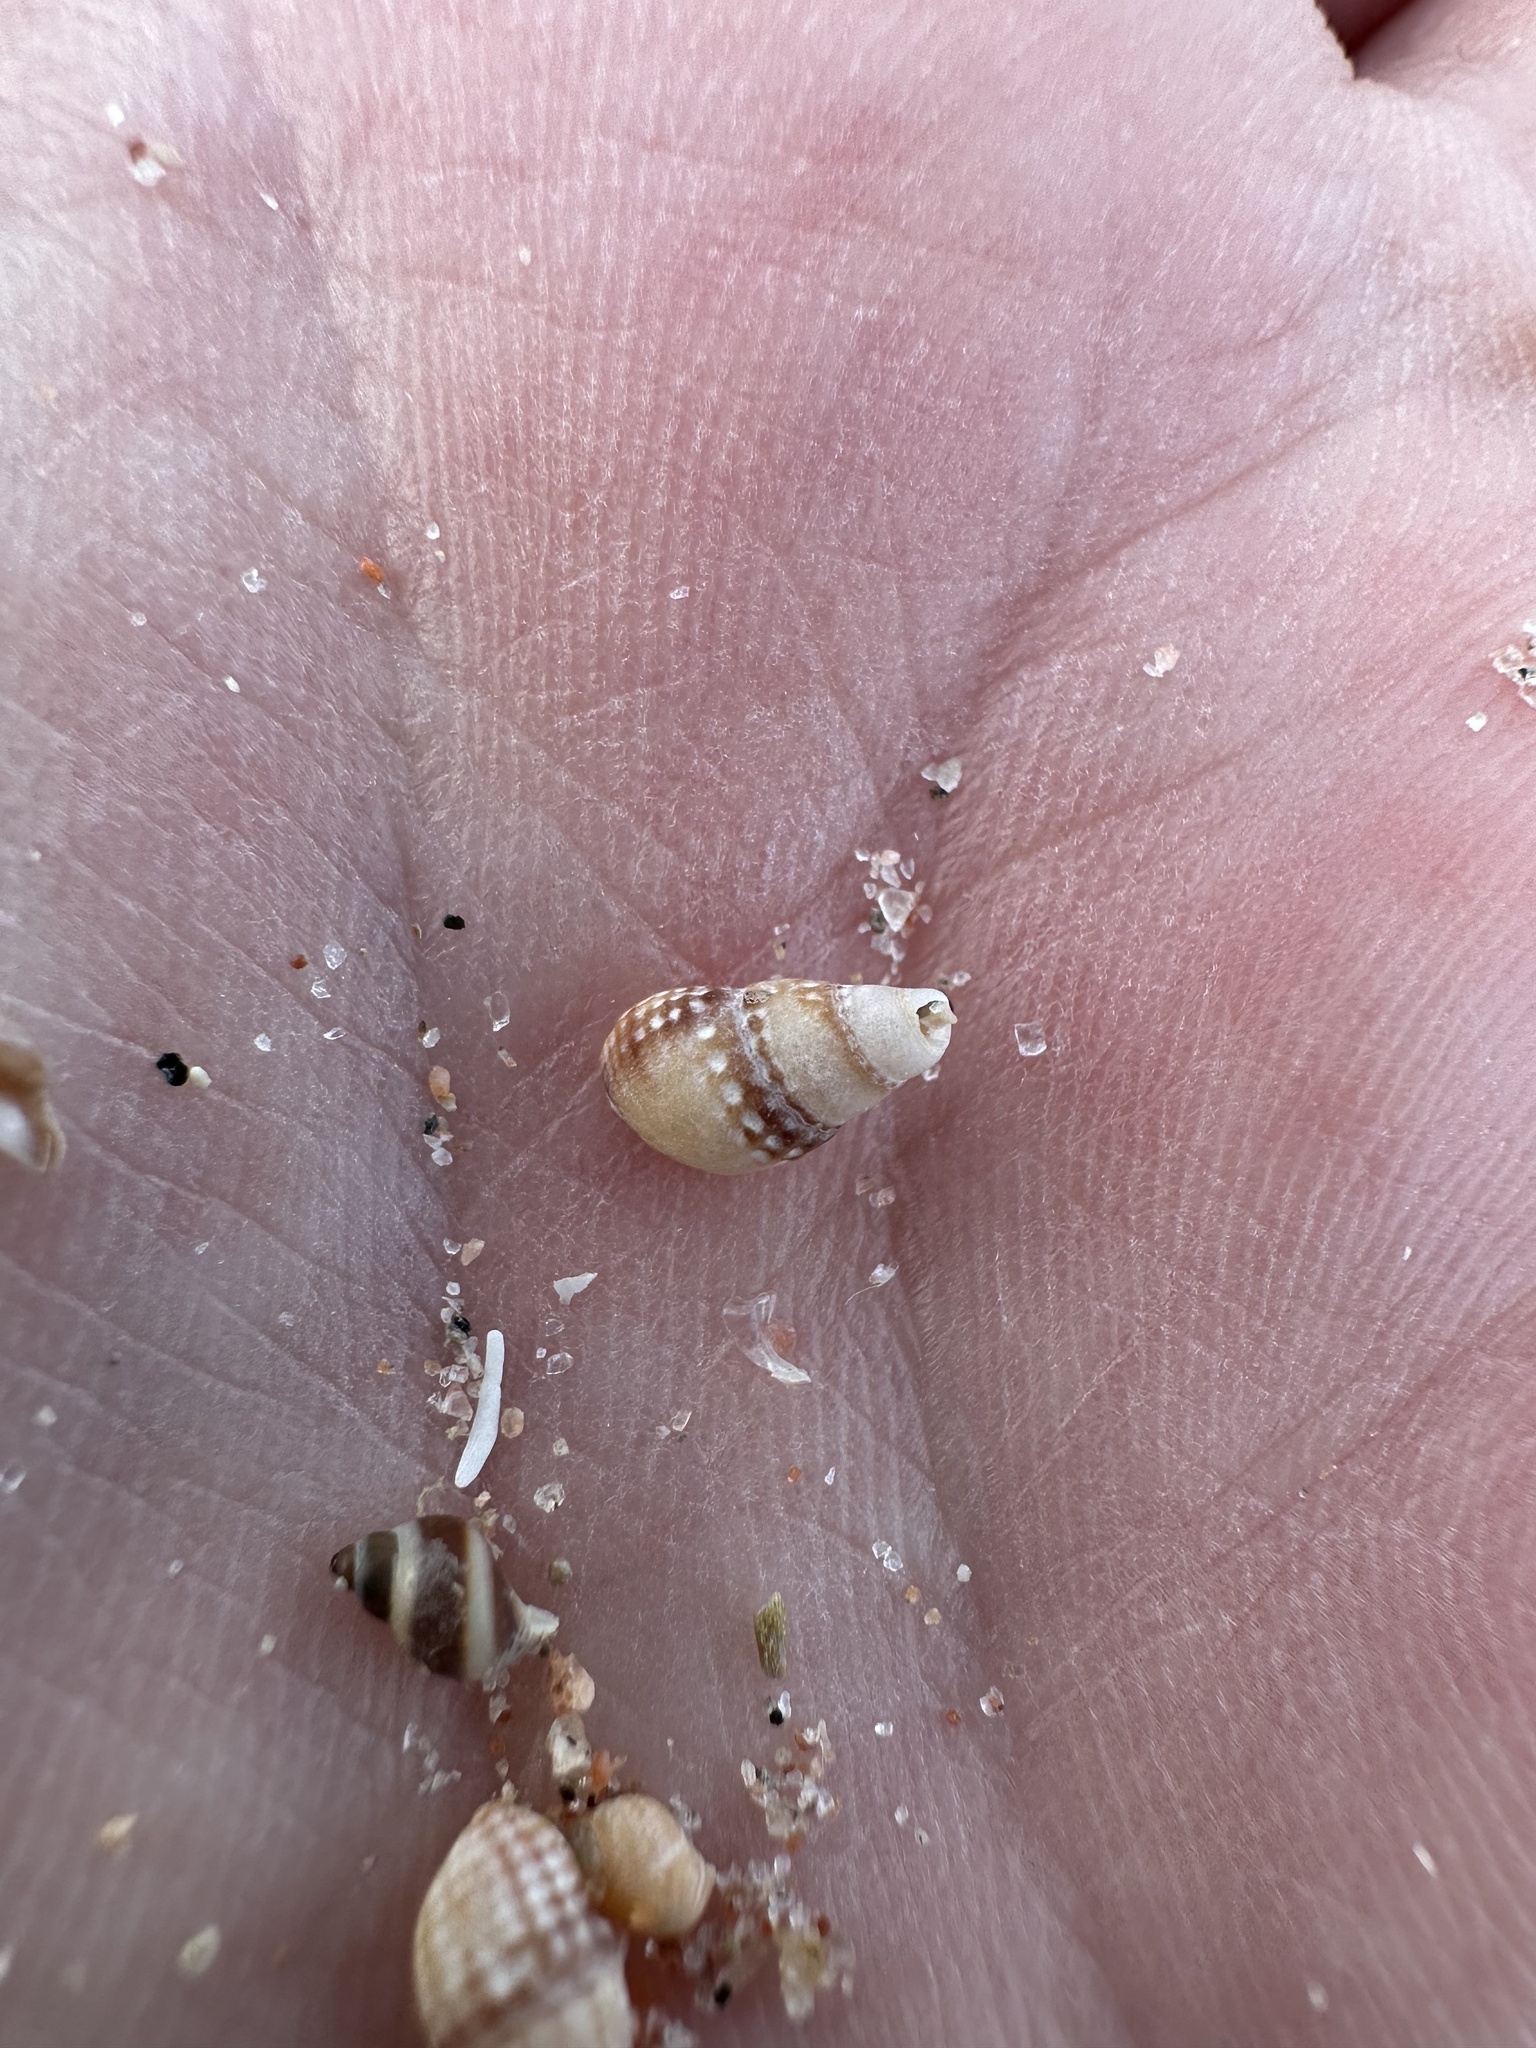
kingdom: Animalia
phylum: Mollusca
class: Gastropoda
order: Neogastropoda
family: Nassariidae
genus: Ilyanassa
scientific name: Ilyanassa trivittata
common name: Three-line mudsnail
